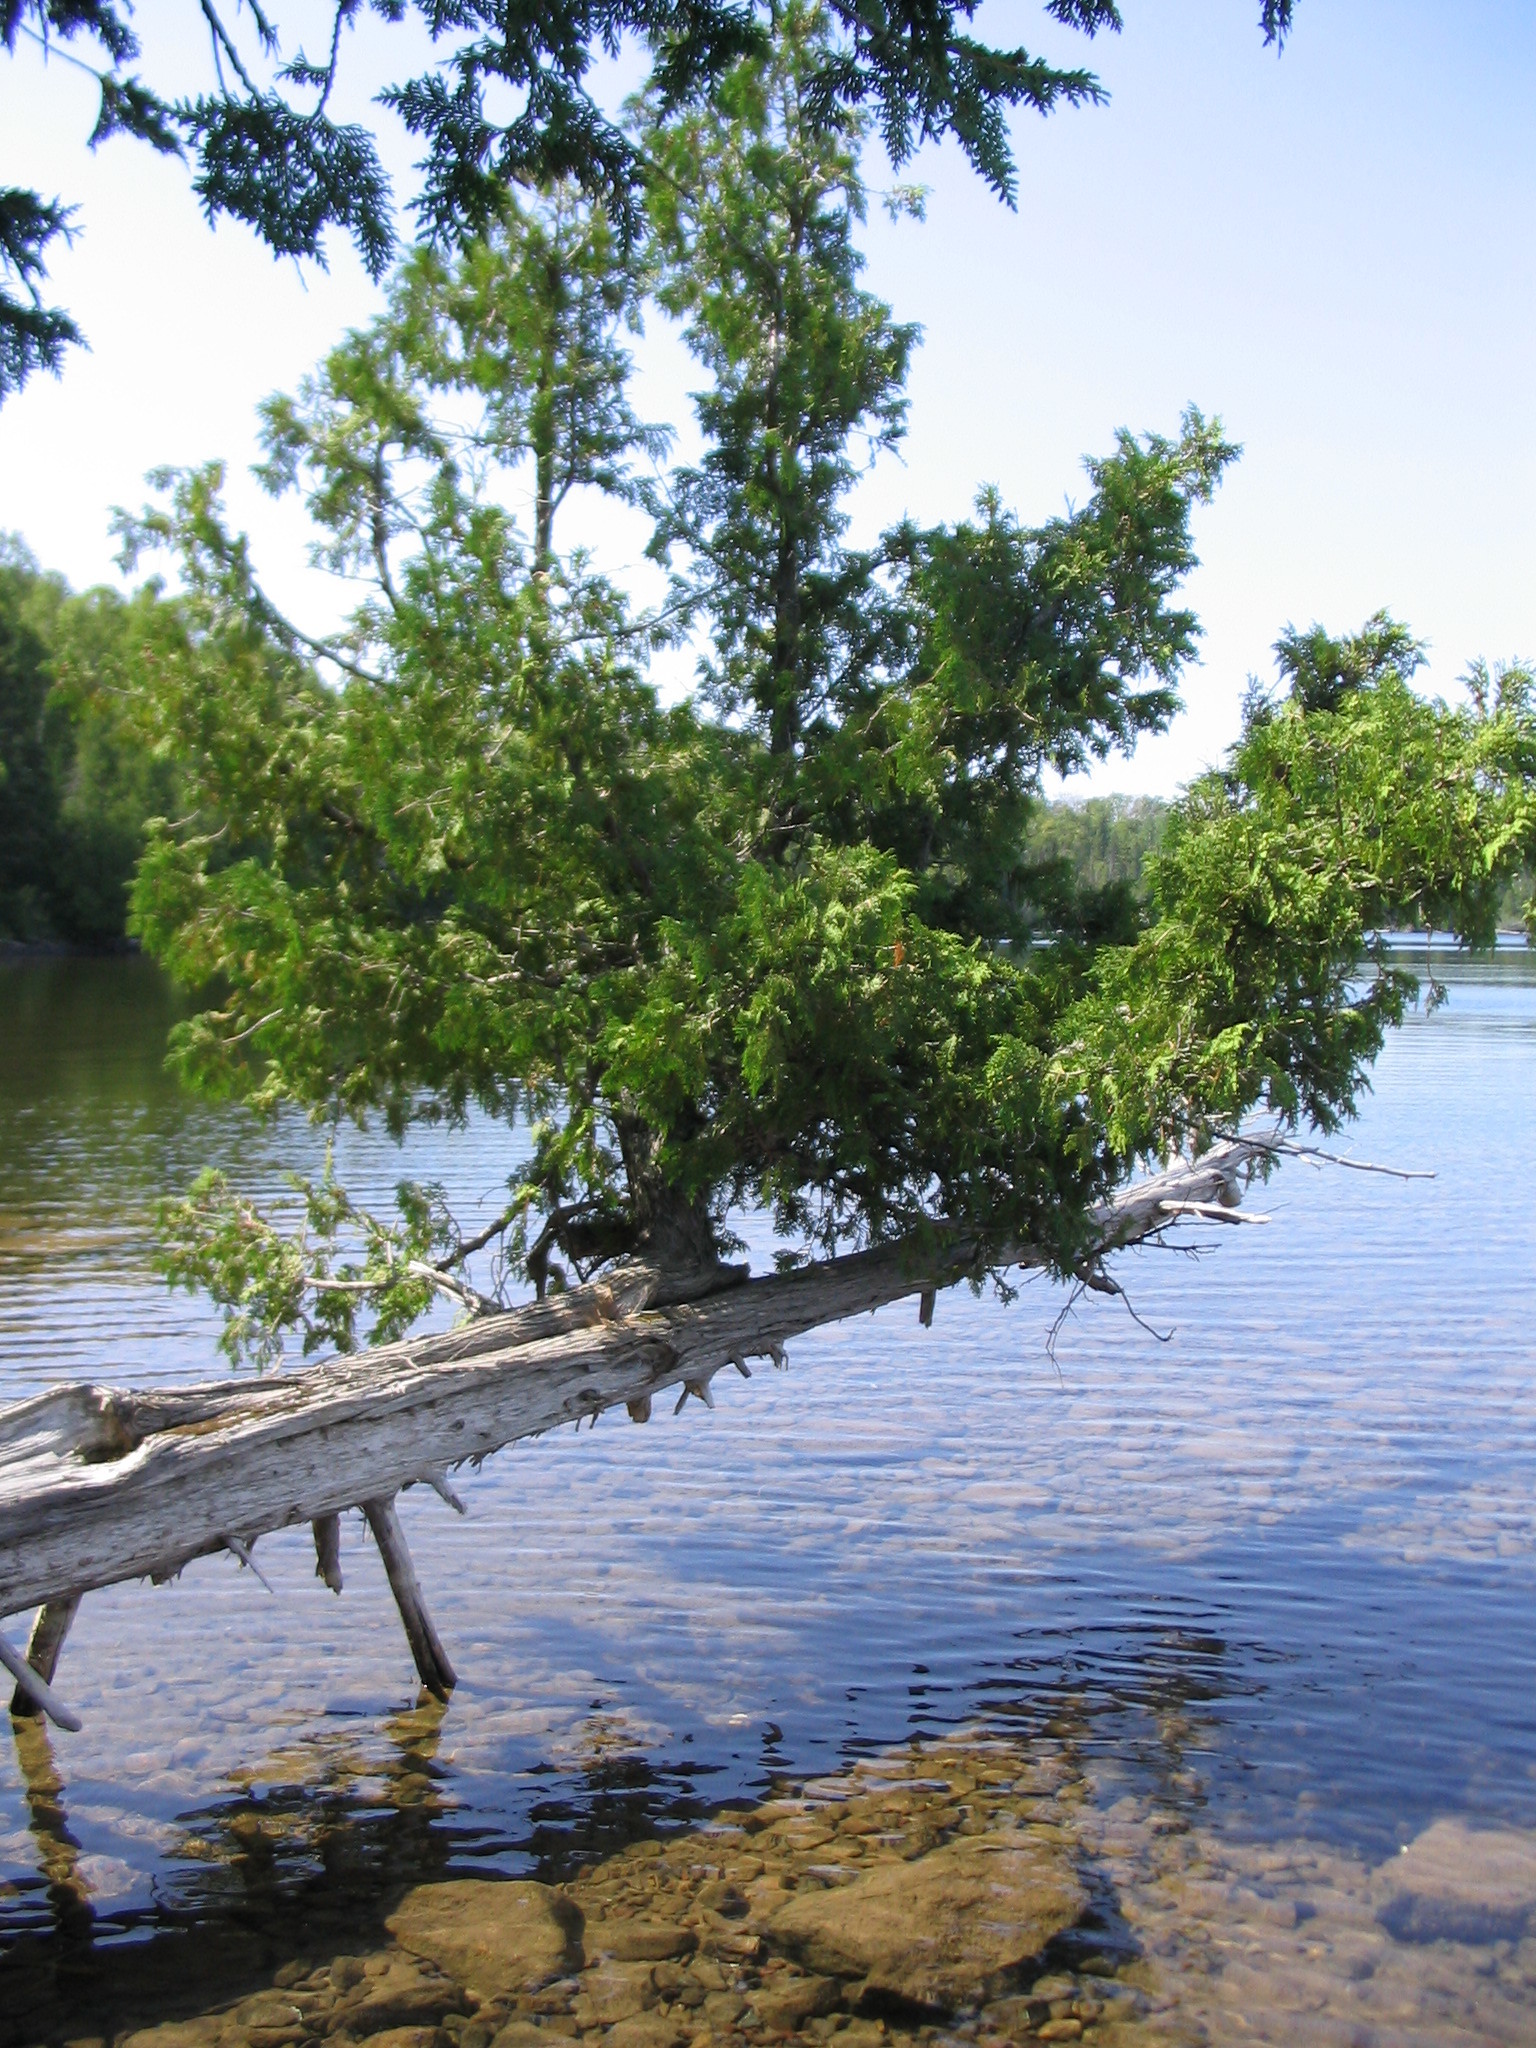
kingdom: Plantae
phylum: Tracheophyta
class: Pinopsida
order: Pinales
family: Cupressaceae
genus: Thuja
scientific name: Thuja occidentalis
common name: Northern white-cedar
